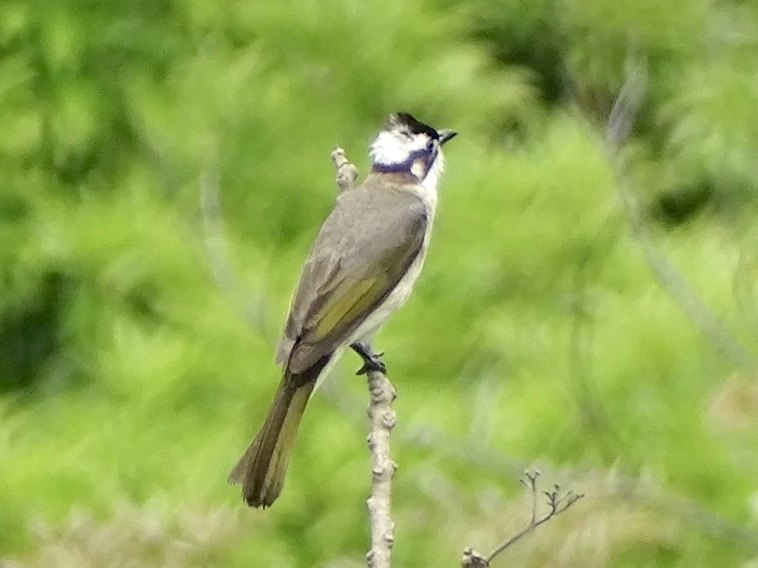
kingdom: Animalia
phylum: Chordata
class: Aves
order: Passeriformes
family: Pycnonotidae
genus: Pycnonotus
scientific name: Pycnonotus sinensis
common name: Light-vented bulbul
